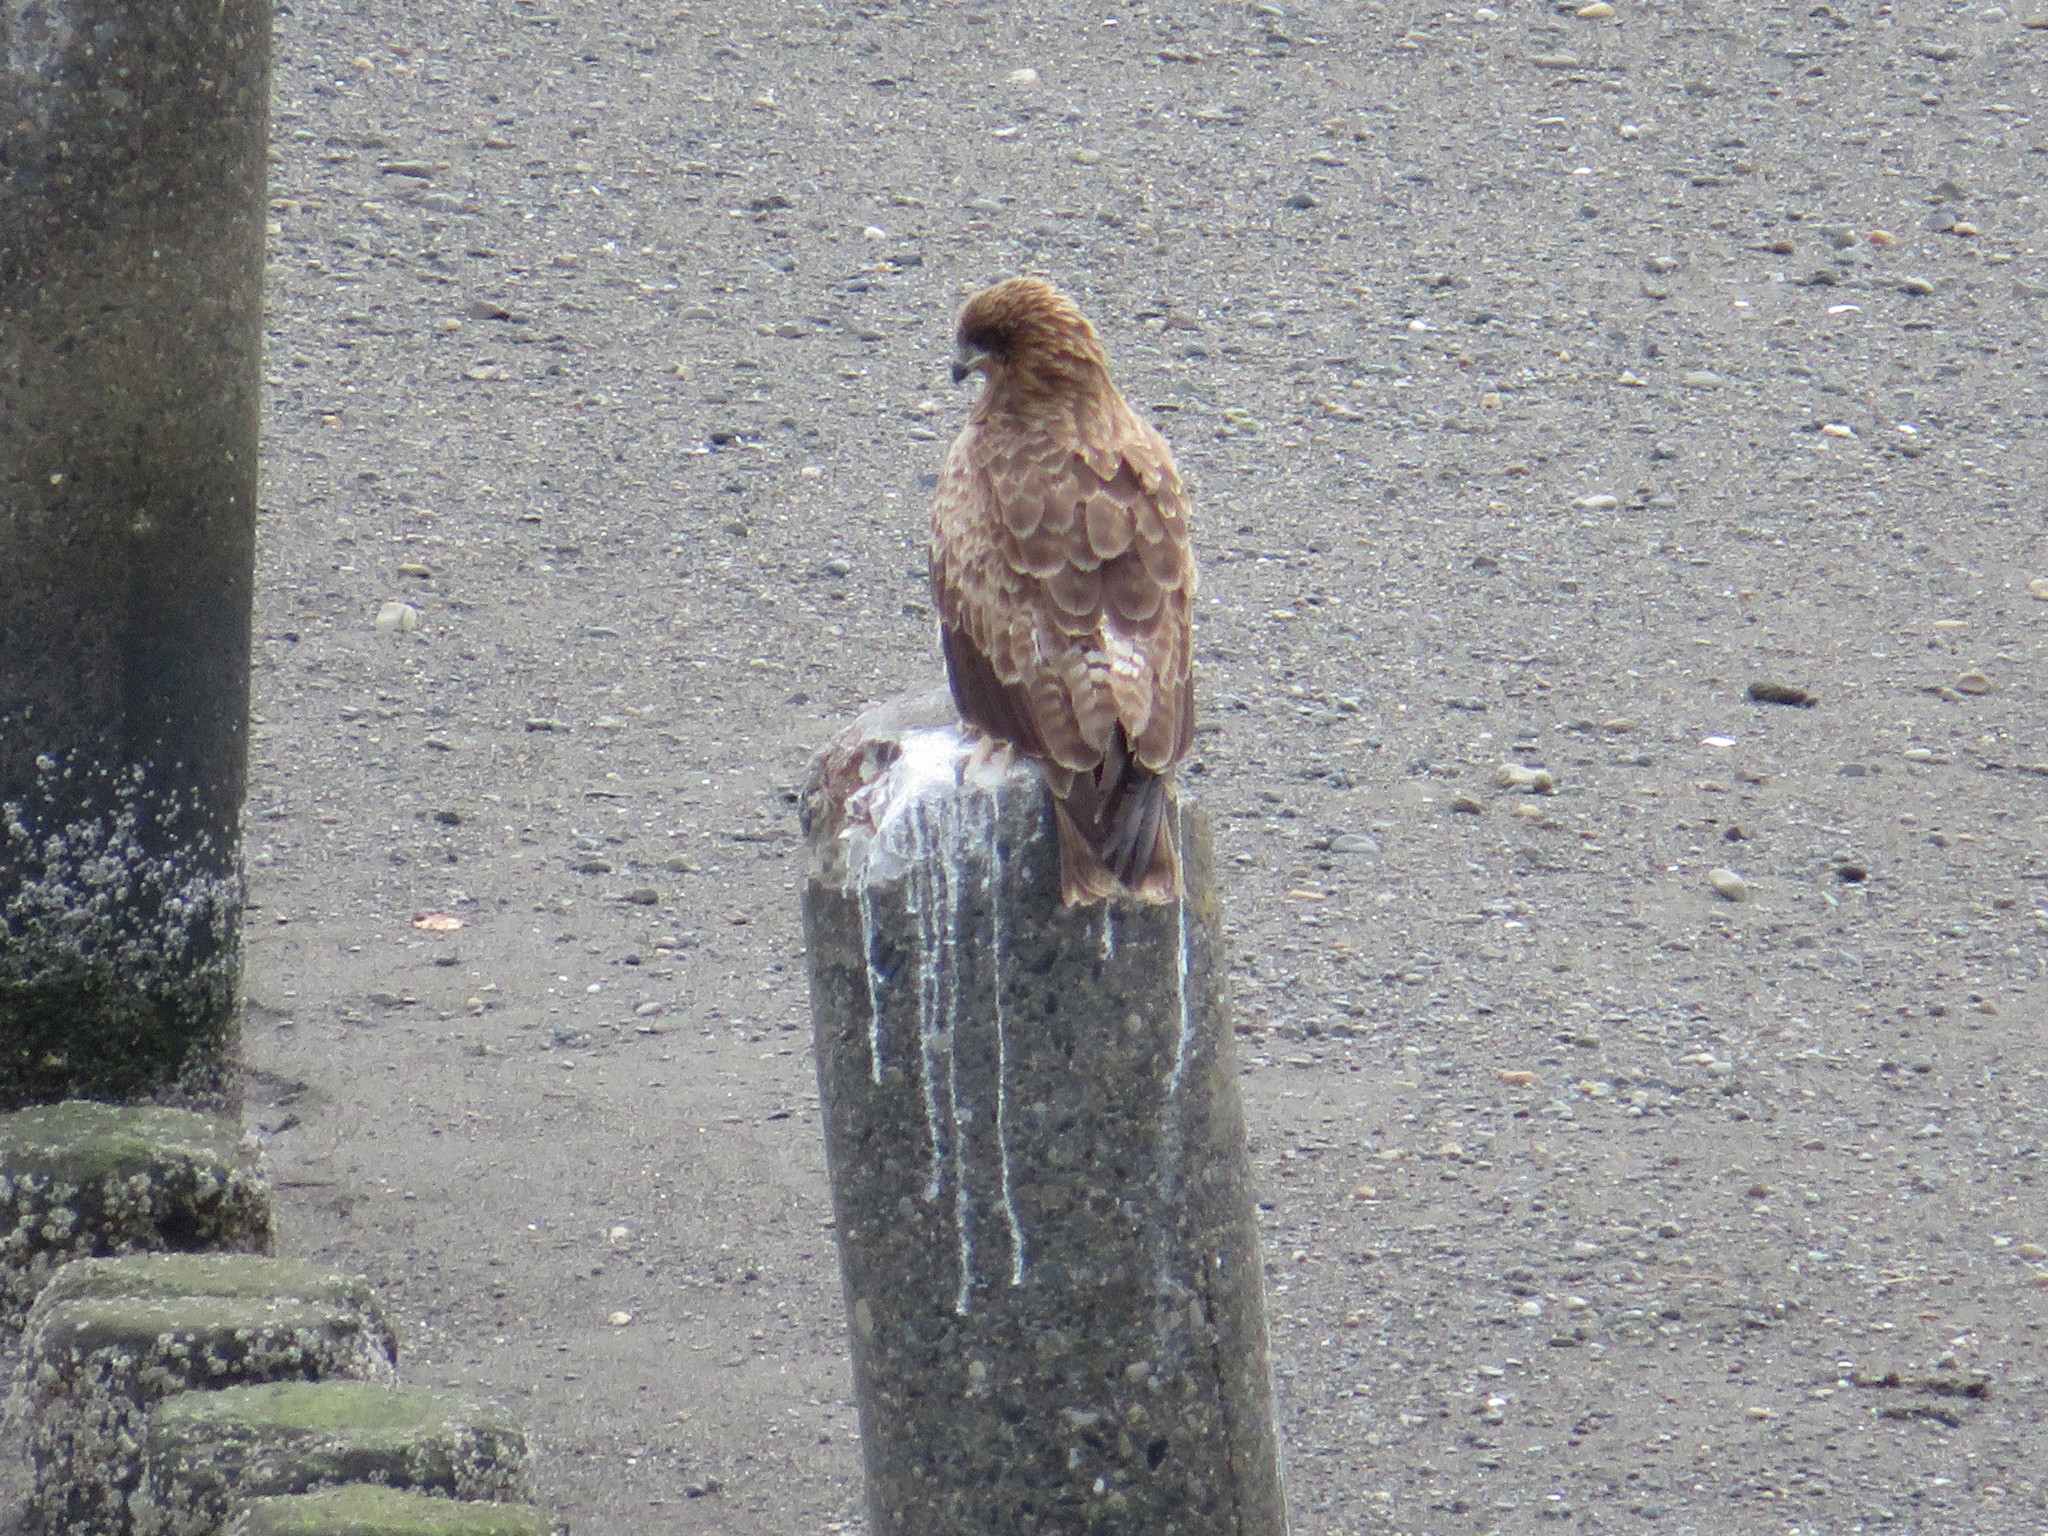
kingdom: Animalia
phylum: Chordata
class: Aves
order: Accipitriformes
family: Accipitridae
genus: Milvus
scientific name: Milvus migrans
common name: Black kite
